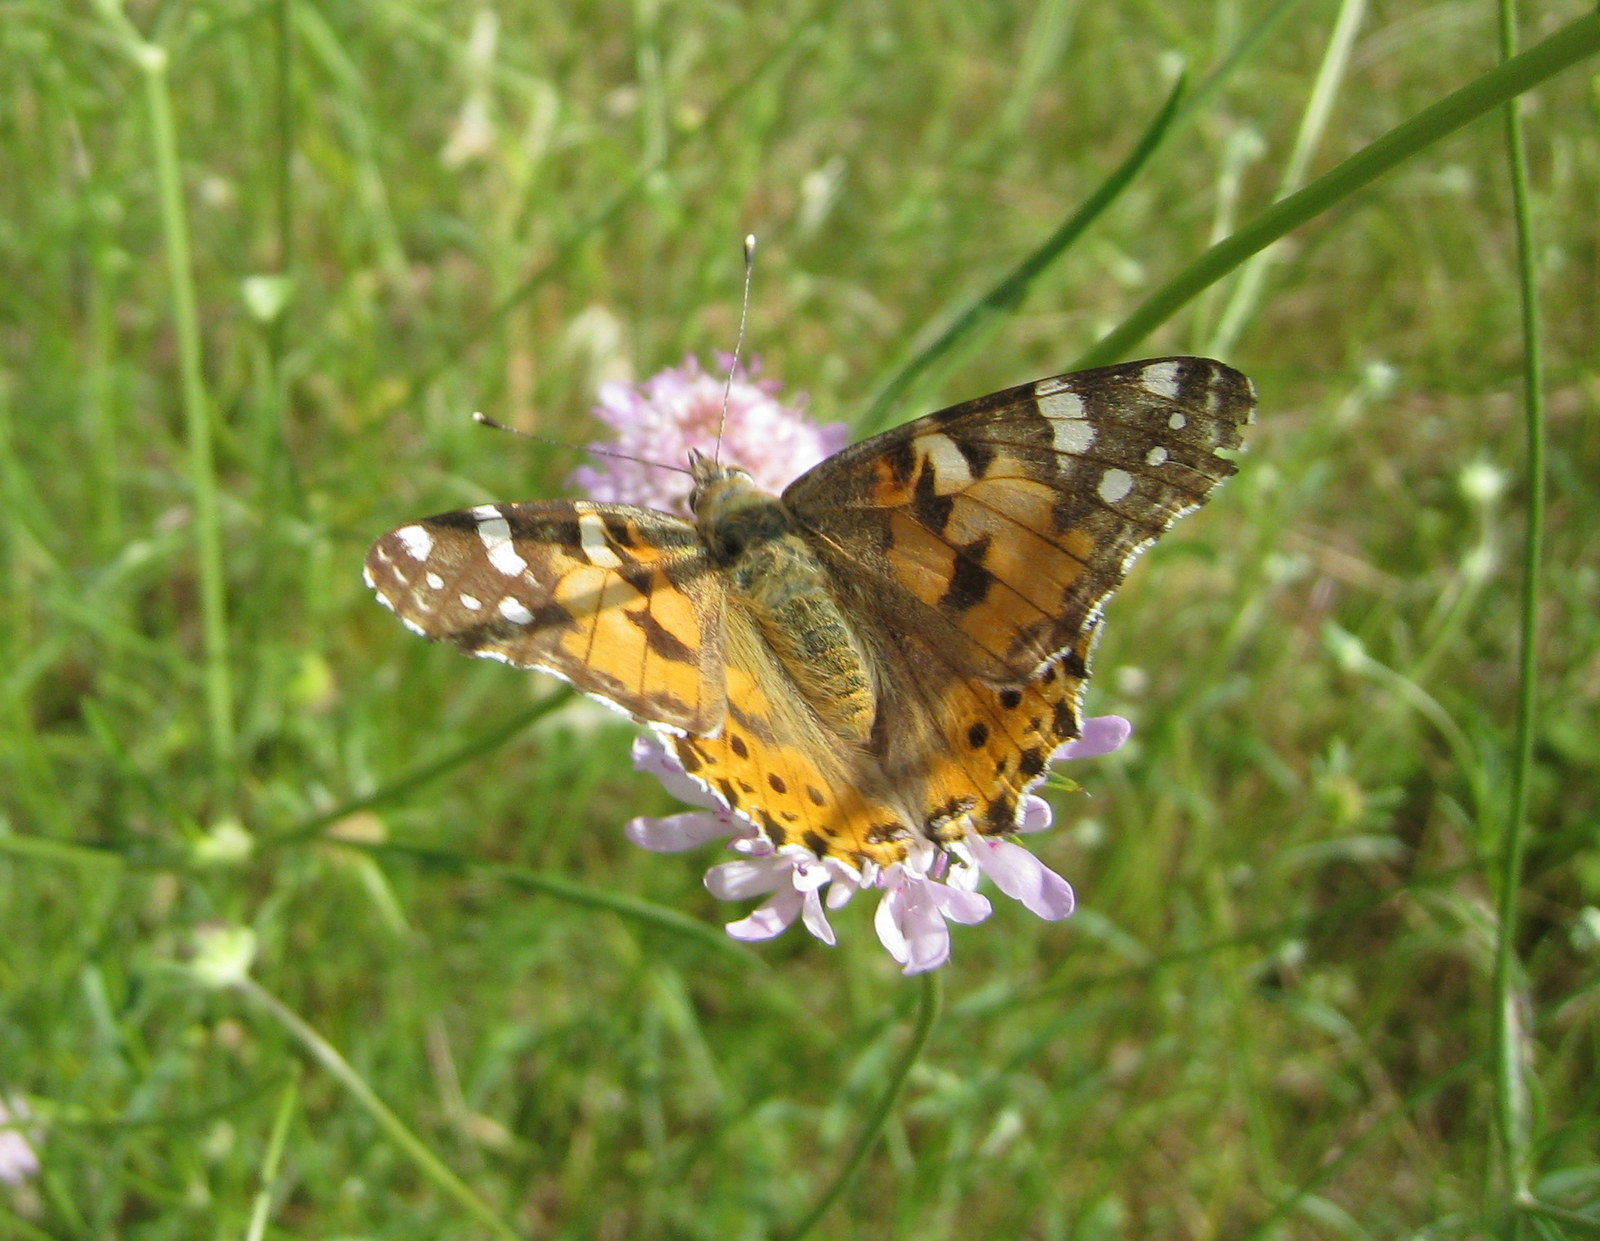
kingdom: Animalia
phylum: Arthropoda
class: Insecta
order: Lepidoptera
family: Nymphalidae
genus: Vanessa
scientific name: Vanessa cardui
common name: Painted lady
